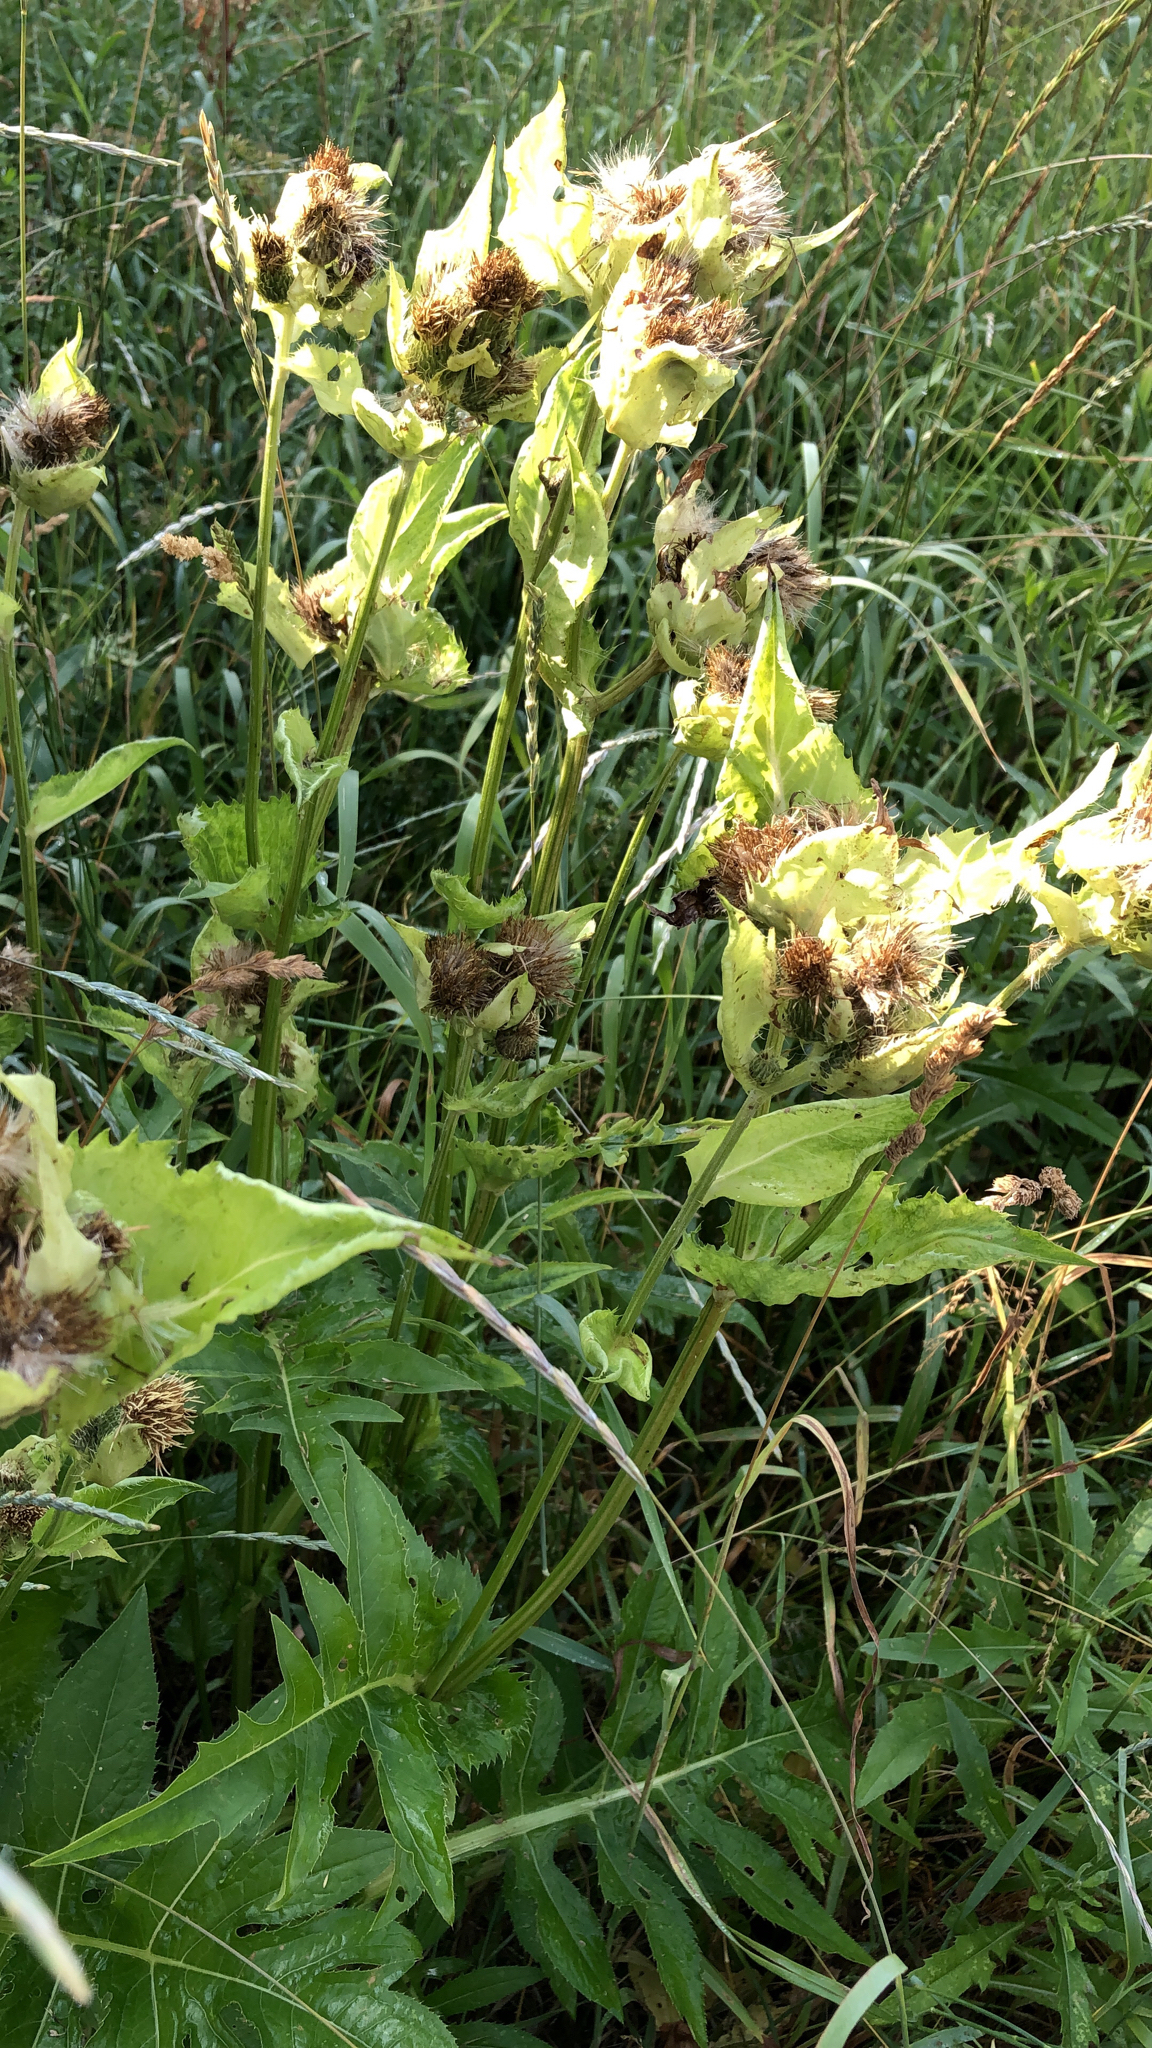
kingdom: Plantae
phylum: Tracheophyta
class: Magnoliopsida
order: Asterales
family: Asteraceae
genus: Cirsium
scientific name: Cirsium oleraceum
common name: Cabbage thistle
